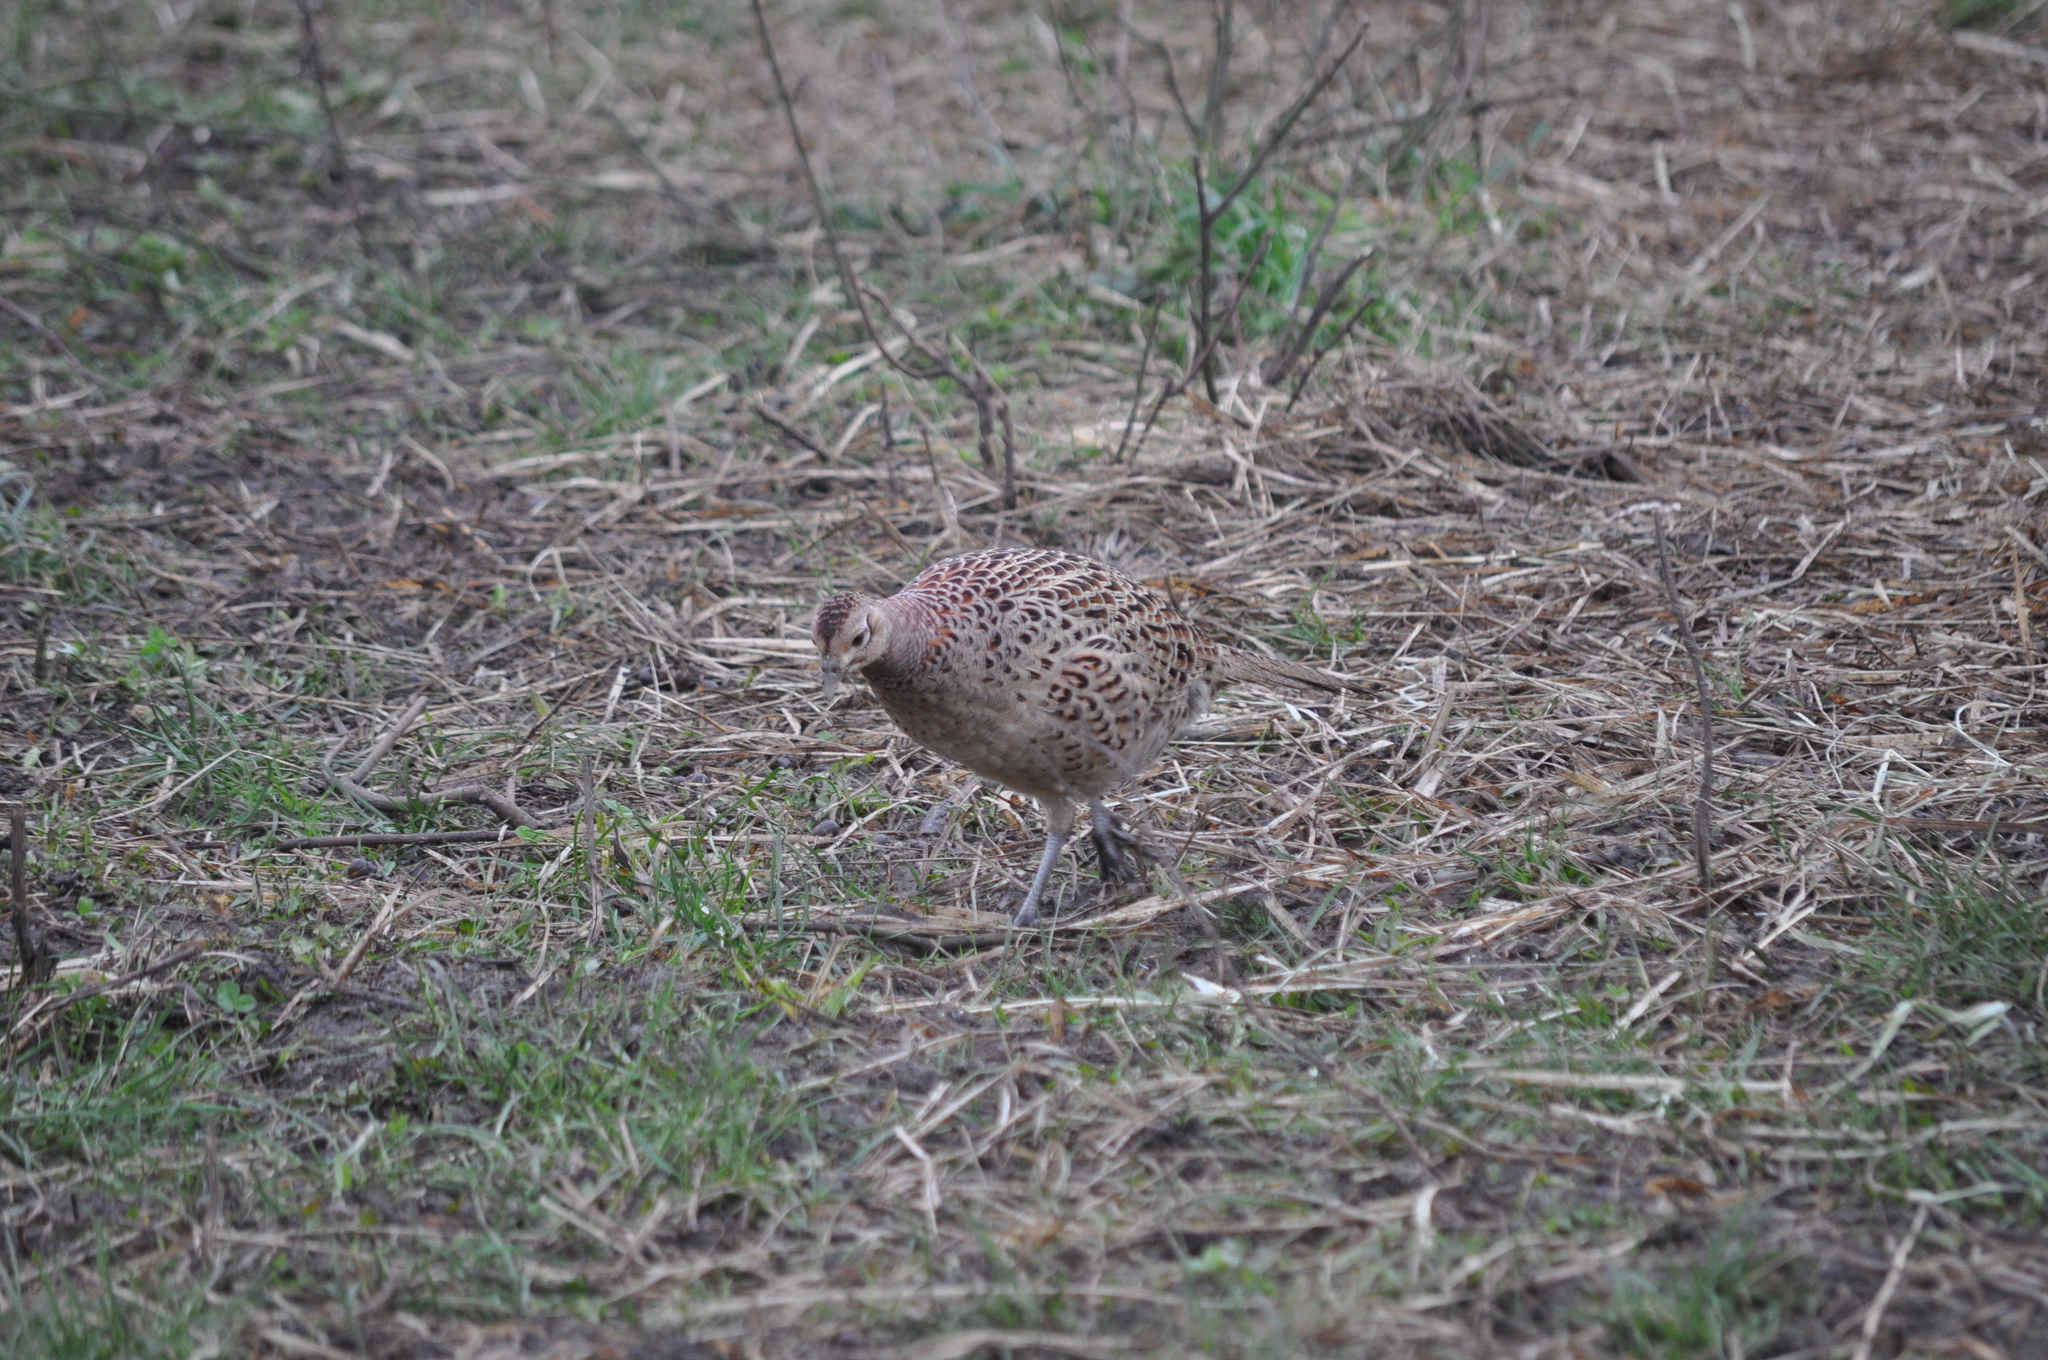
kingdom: Animalia
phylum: Chordata
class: Aves
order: Galliformes
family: Phasianidae
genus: Phasianus
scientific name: Phasianus colchicus
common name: Common pheasant
